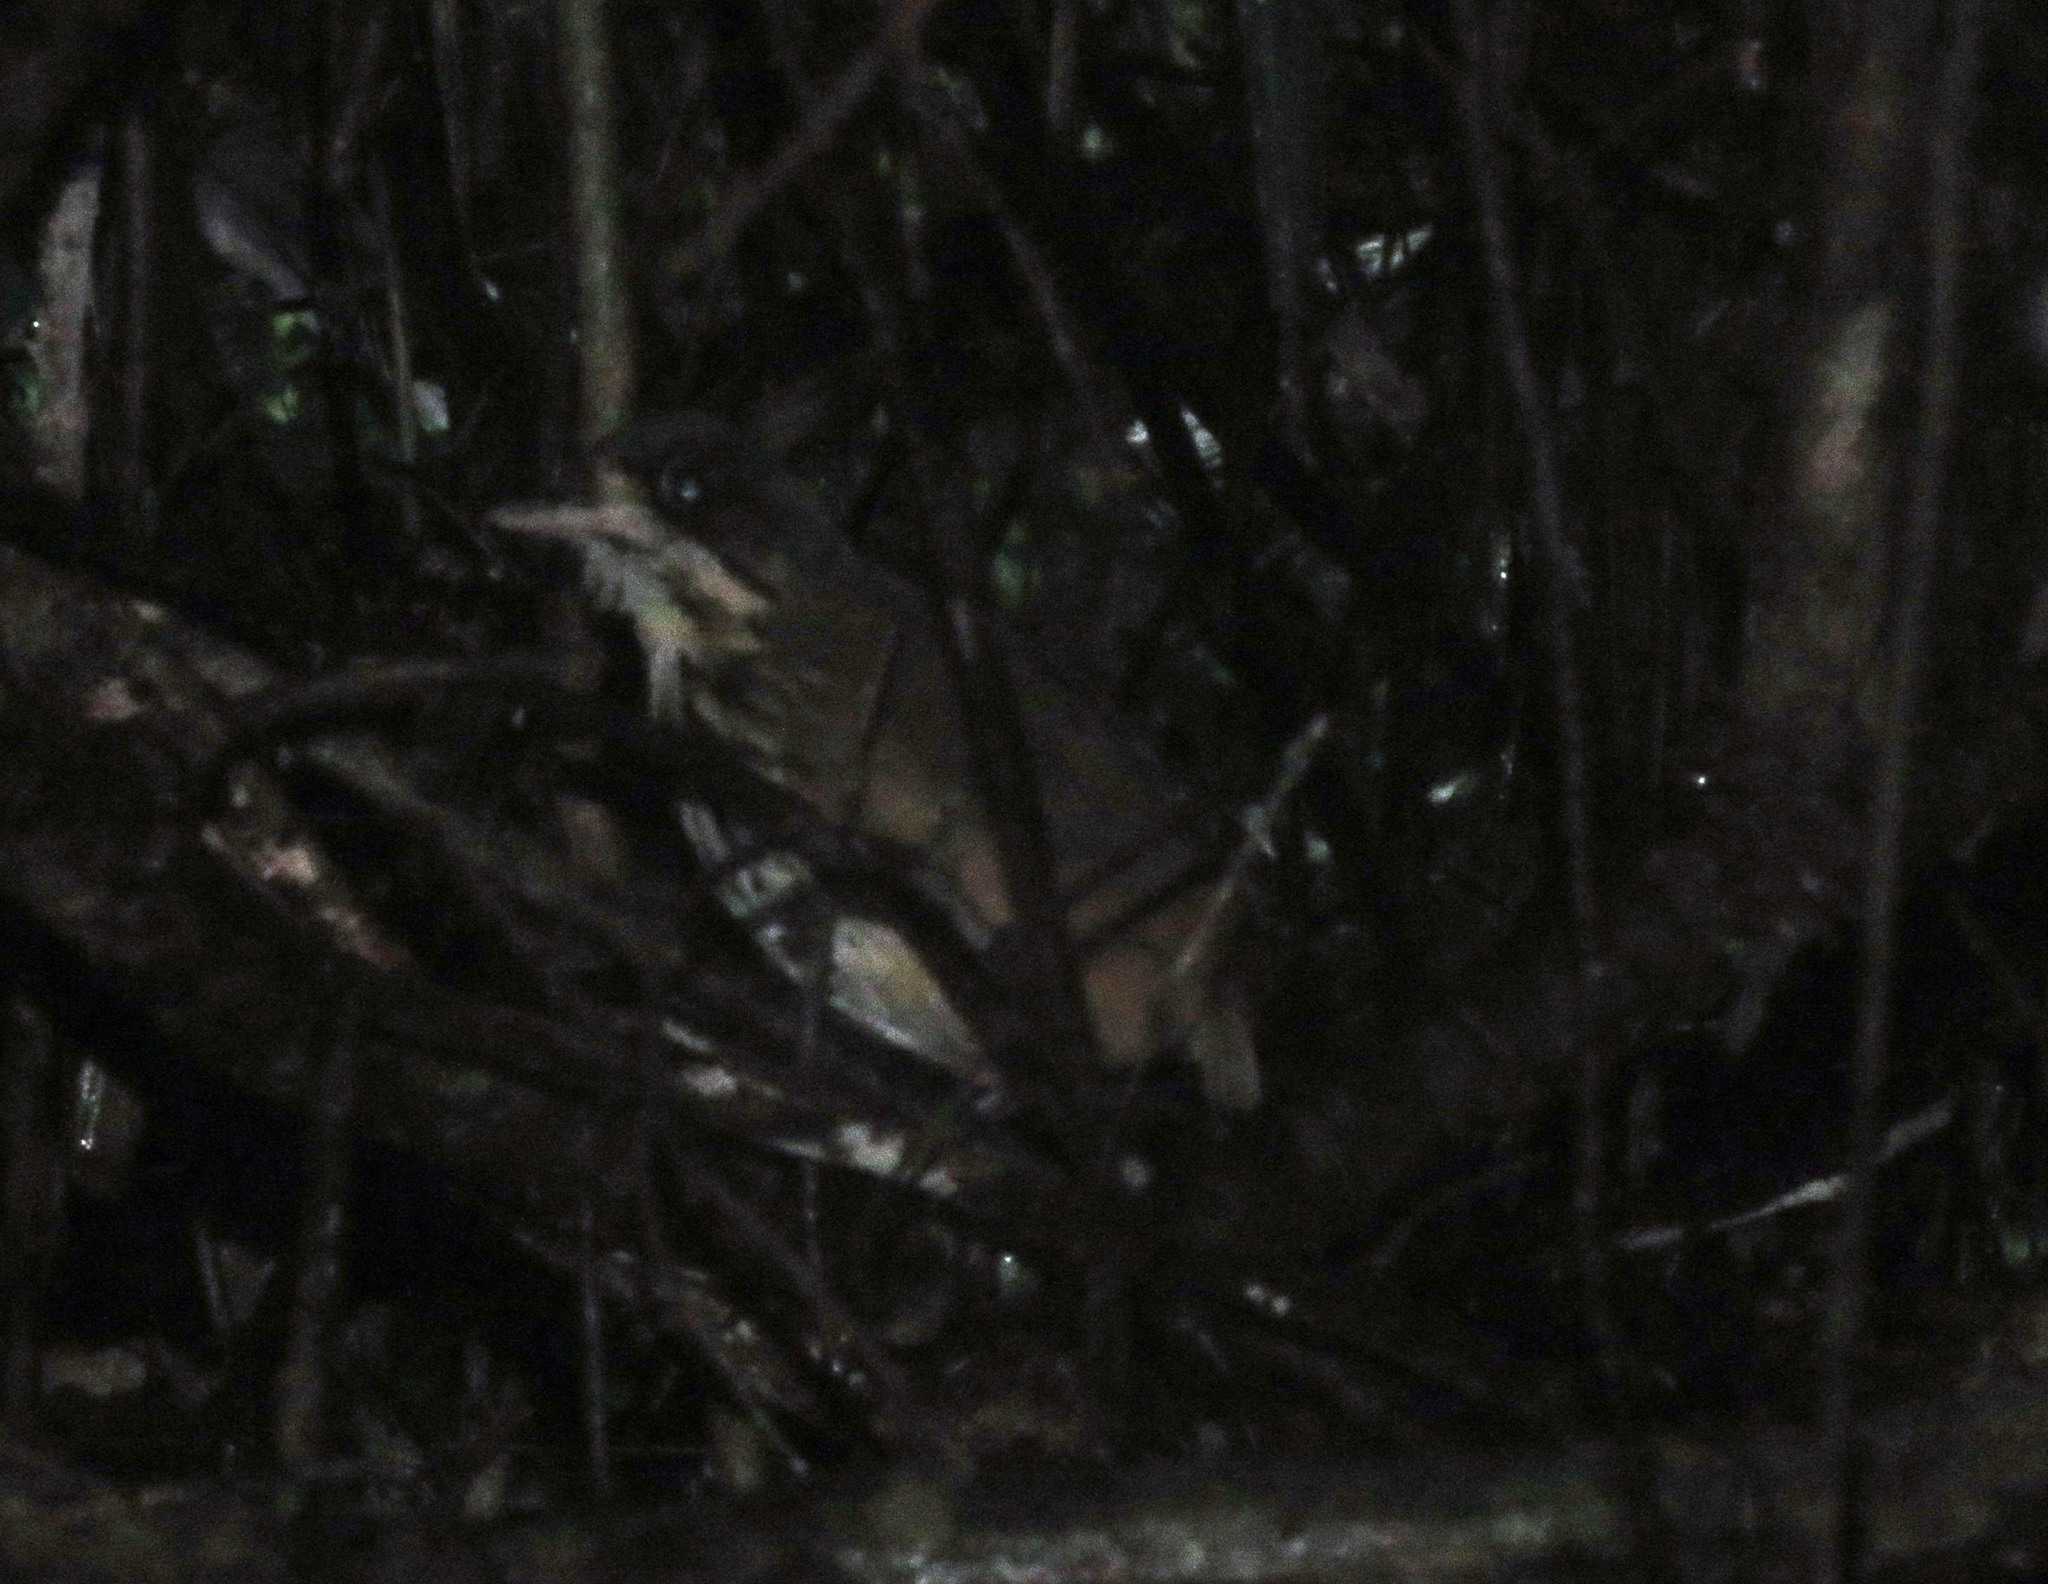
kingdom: Animalia
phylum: Chordata
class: Aves
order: Passeriformes
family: Grallariidae
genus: Hylopezus
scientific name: Hylopezus auricularis
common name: Masked antpitta
